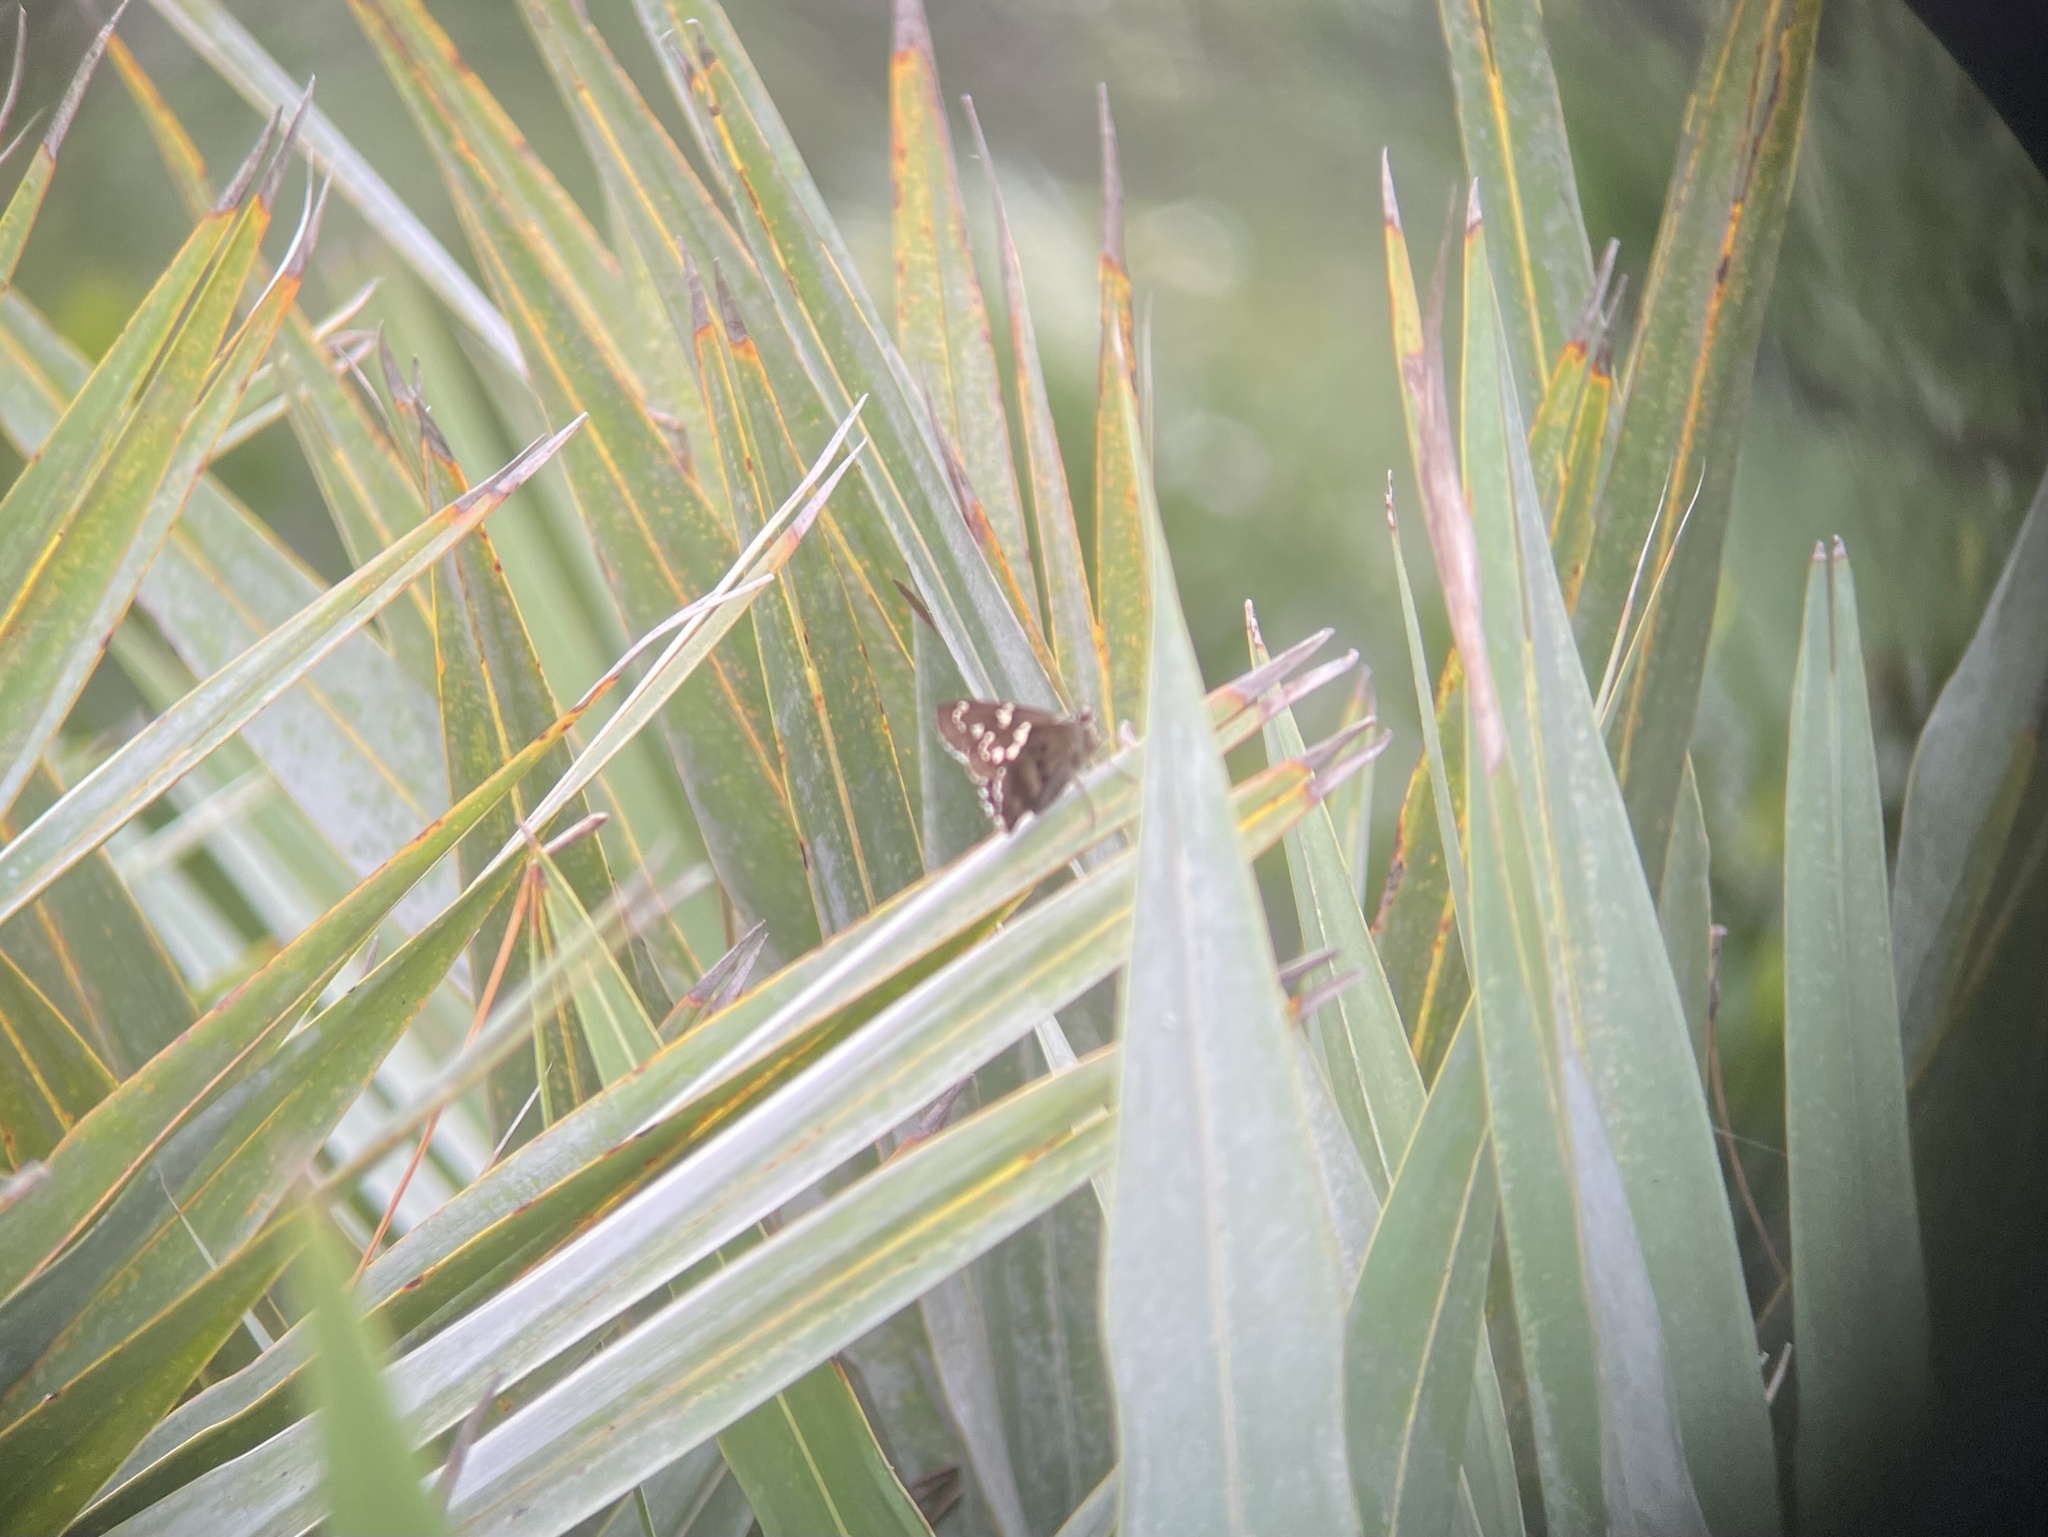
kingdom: Animalia
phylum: Arthropoda
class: Insecta
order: Lepidoptera
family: Hesperiidae
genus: Urbanus
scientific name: Urbanus proteus
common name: Long-tailed skipper
